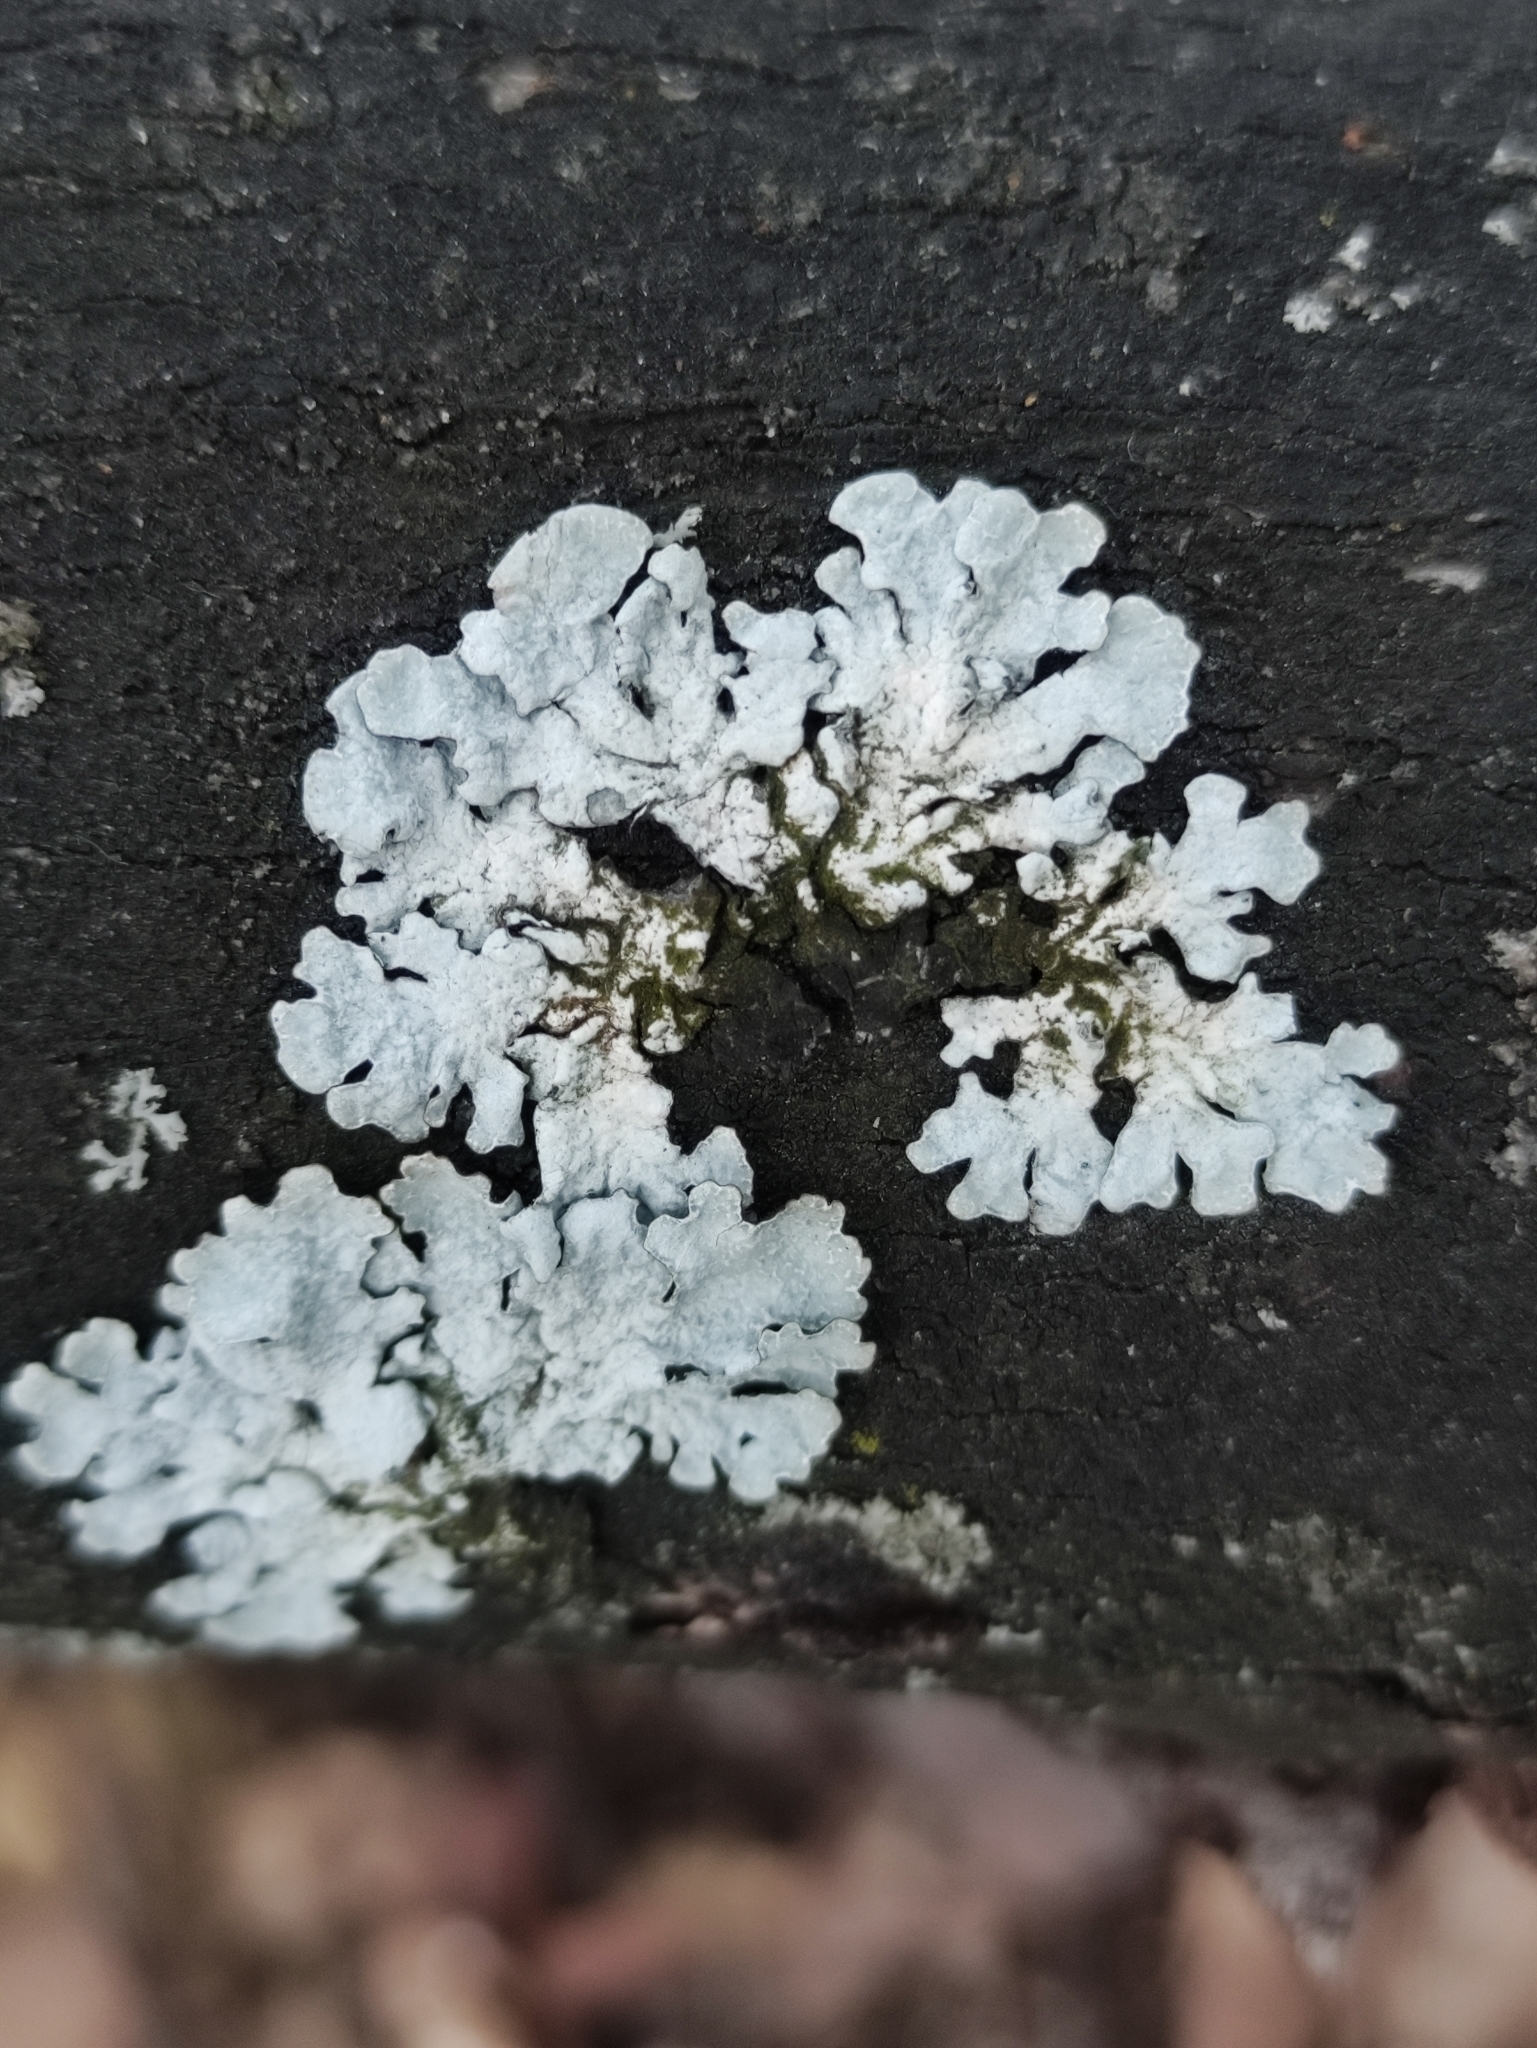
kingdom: Fungi
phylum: Ascomycota
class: Lecanoromycetes
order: Lecanorales
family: Parmeliaceae
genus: Parmelia
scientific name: Parmelia sulcata
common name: Netted shield lichen
